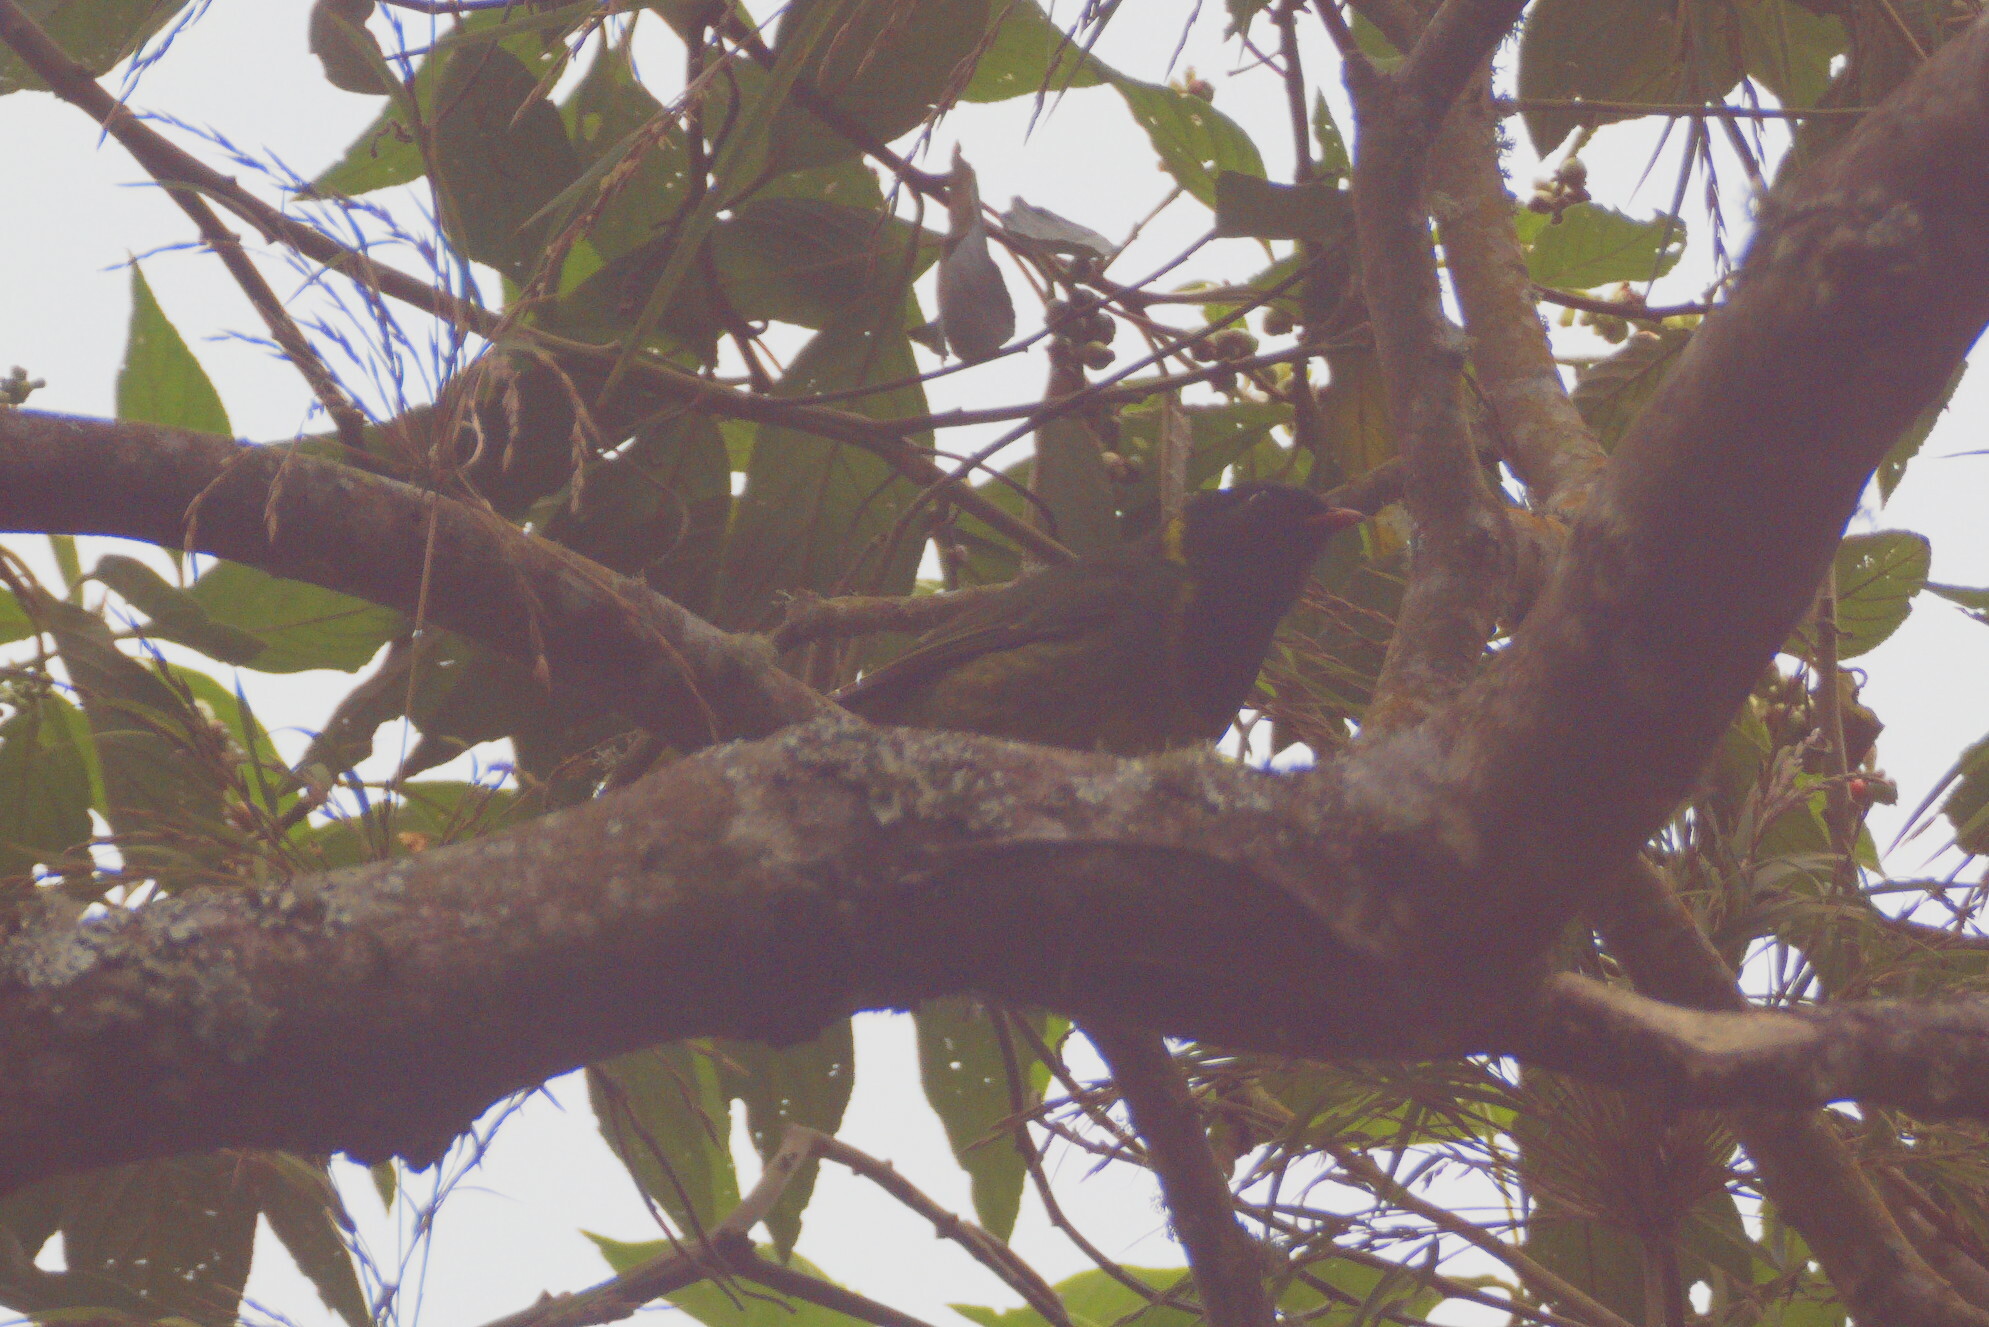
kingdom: Animalia
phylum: Chordata
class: Aves
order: Passeriformes
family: Cotingidae
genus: Pipreola
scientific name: Pipreola riefferii
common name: Green-and-black fruiteater
